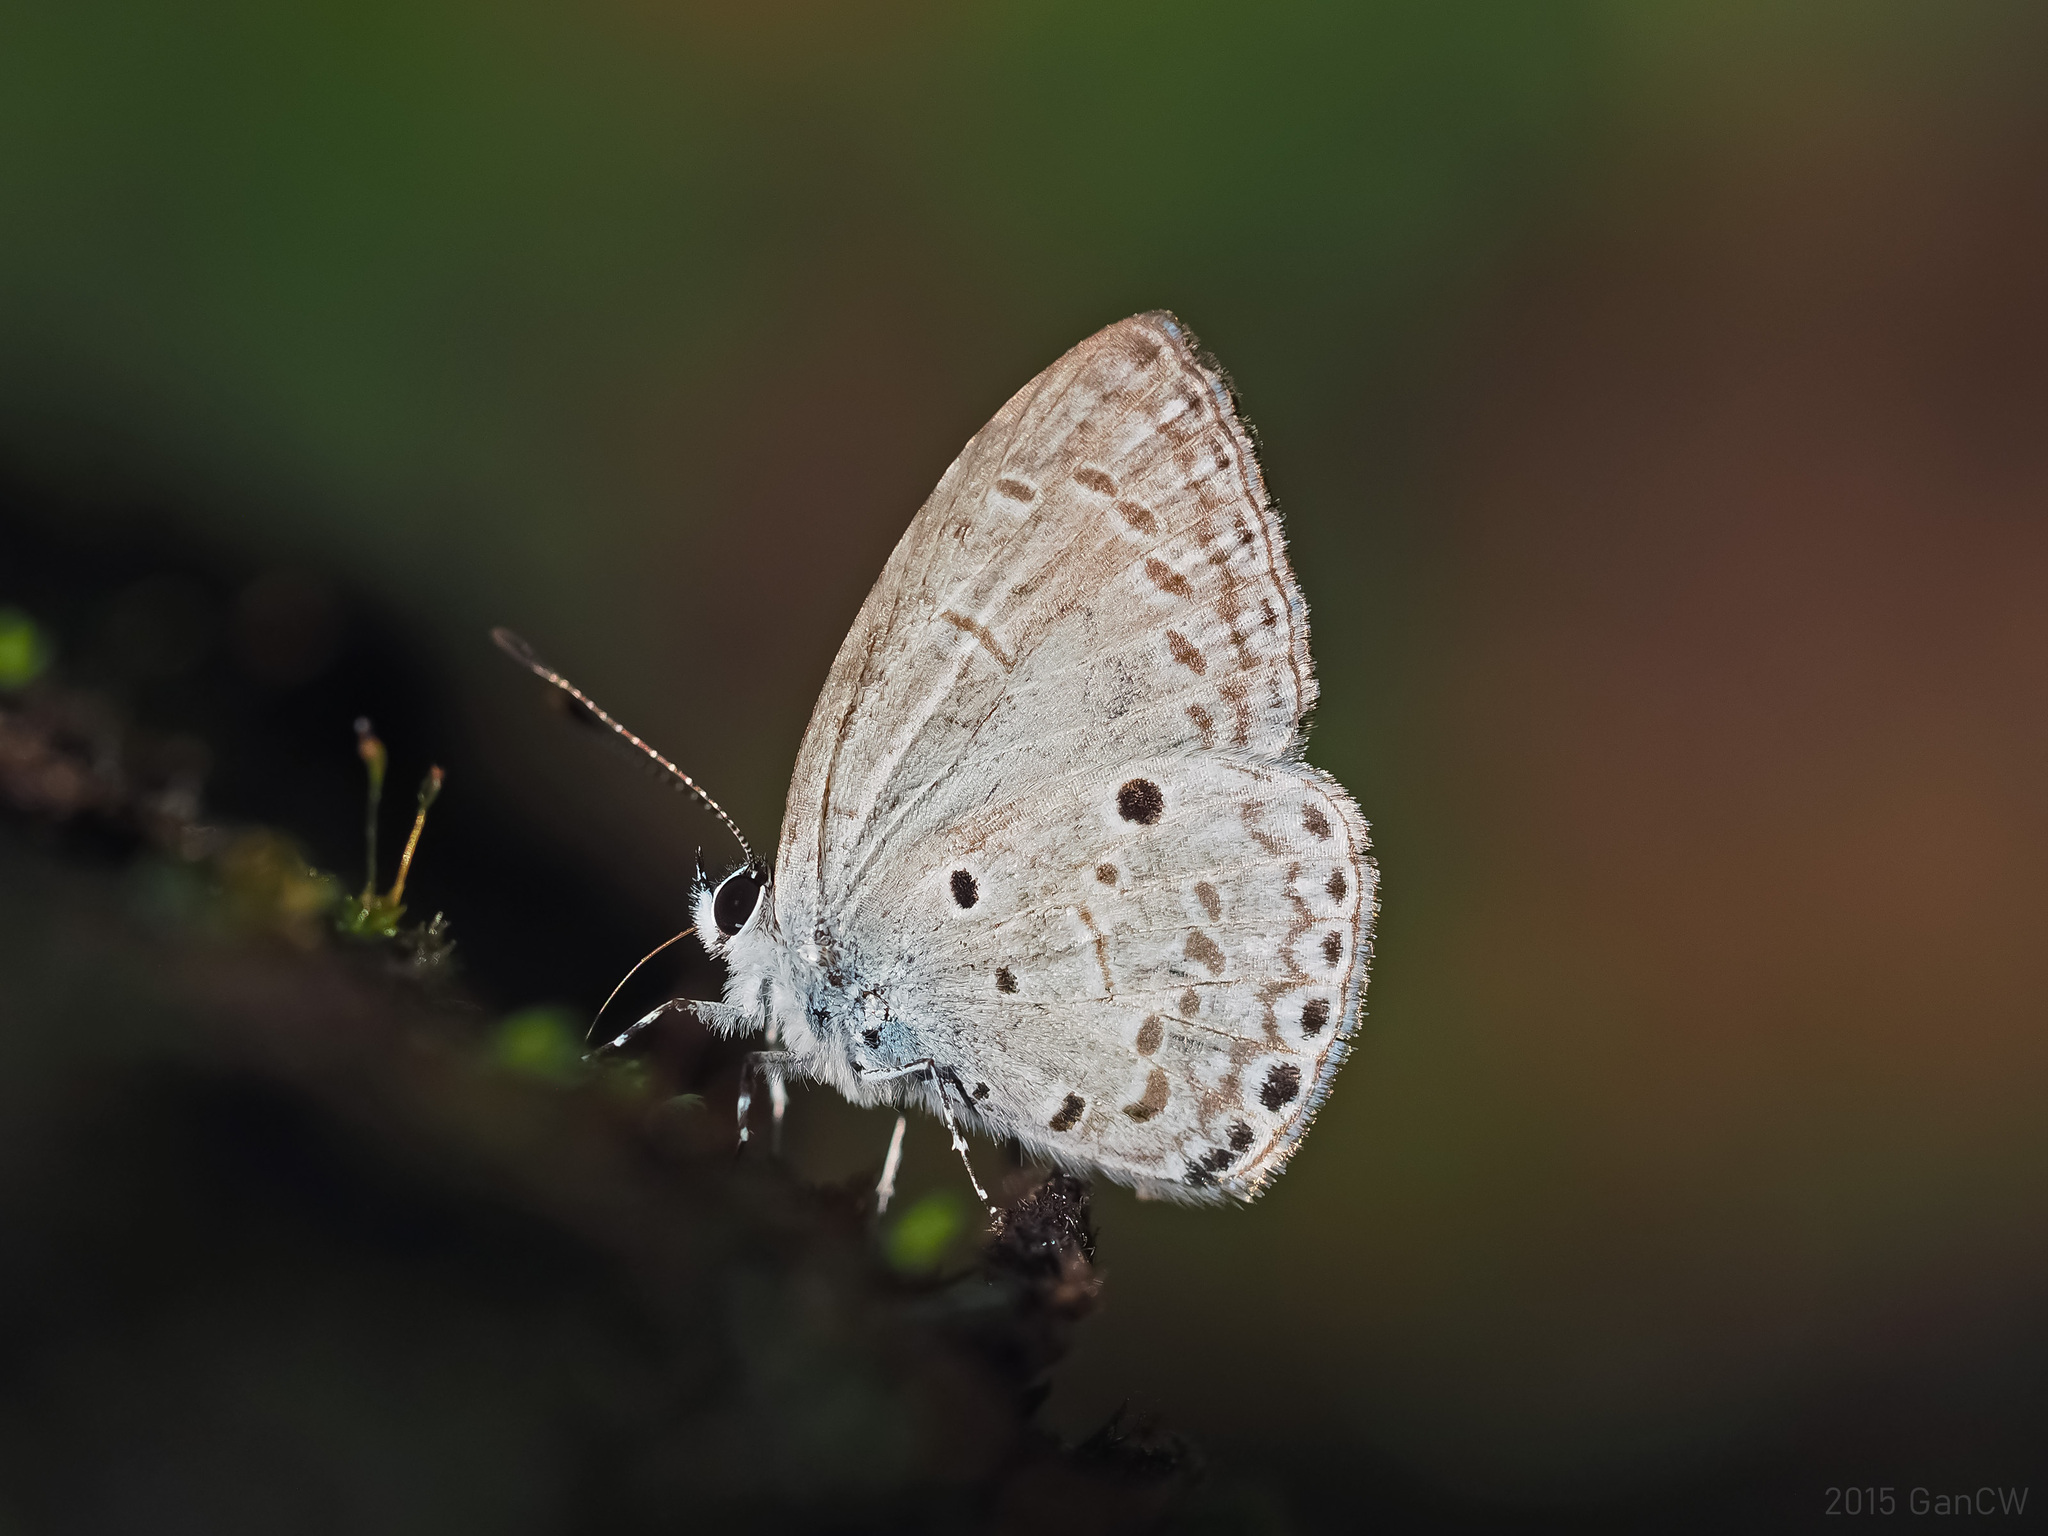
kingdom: Animalia
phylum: Arthropoda
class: Insecta
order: Lepidoptera
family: Lycaenidae
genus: Udara
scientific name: Udara
